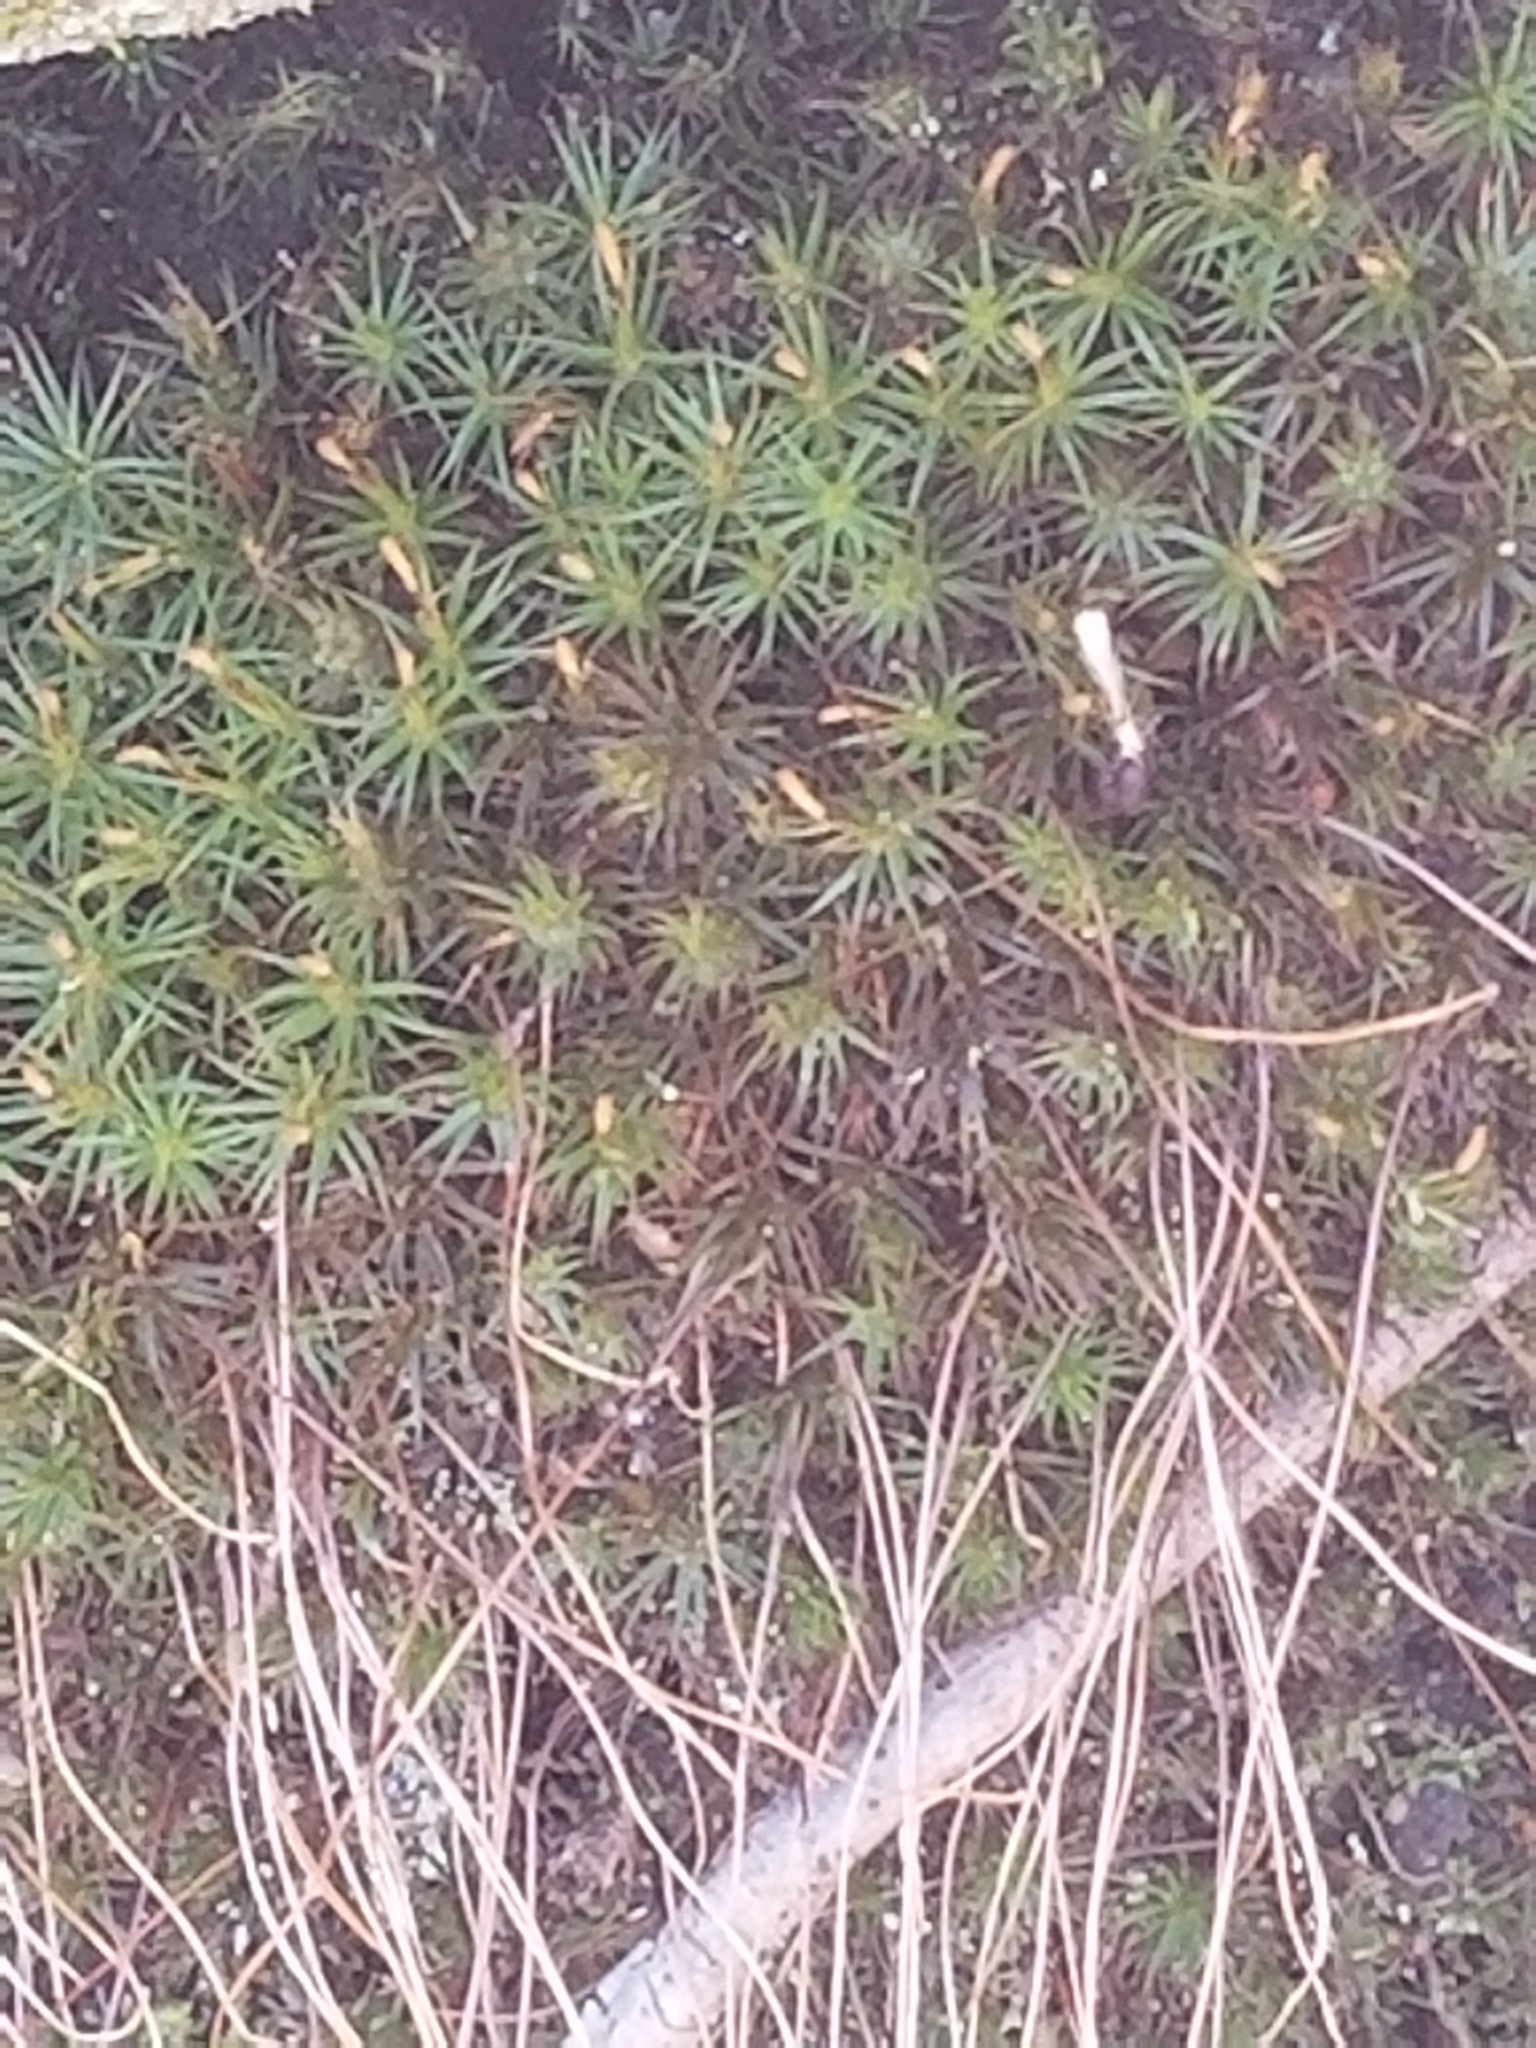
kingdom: Plantae
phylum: Bryophyta
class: Polytrichopsida
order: Polytrichales
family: Polytrichaceae
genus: Polytrichum
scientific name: Polytrichum commune
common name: Common haircap
